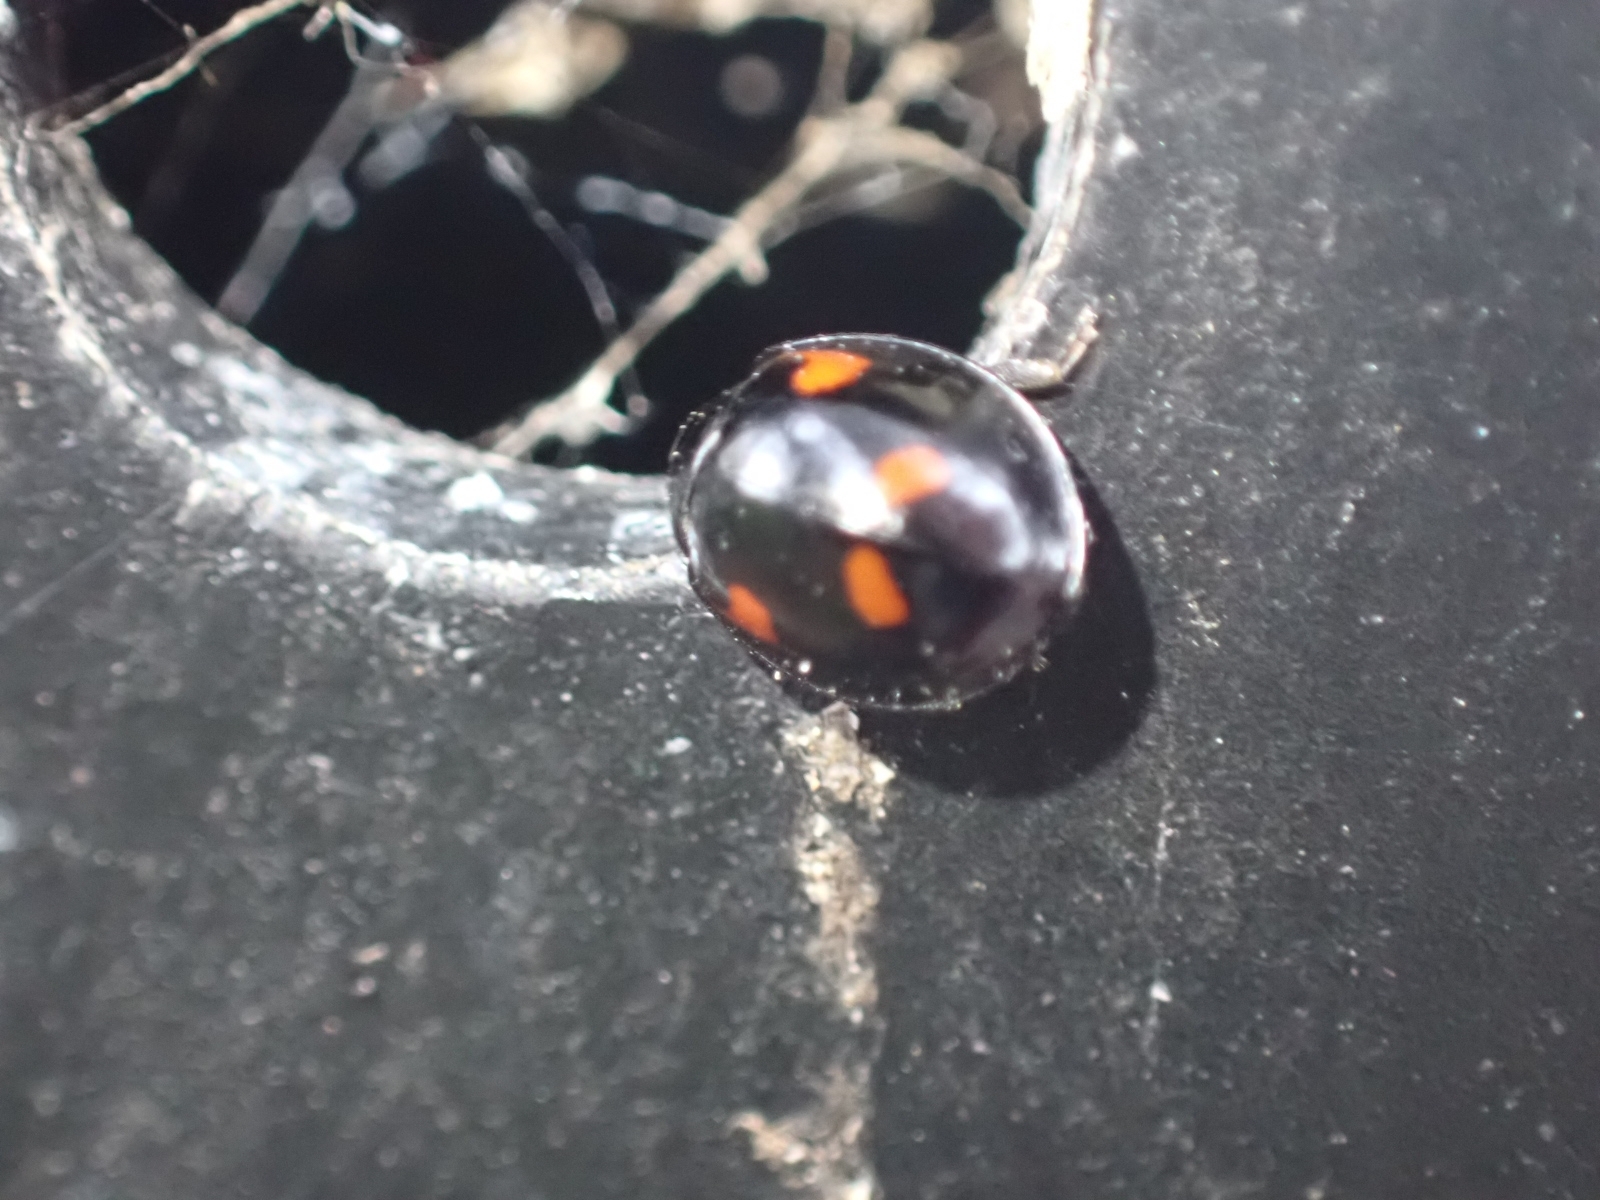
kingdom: Animalia
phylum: Arthropoda
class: Insecta
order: Coleoptera
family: Coccinellidae
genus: Brumus
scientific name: Brumus quadripustulatus
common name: Ladybird beetle
